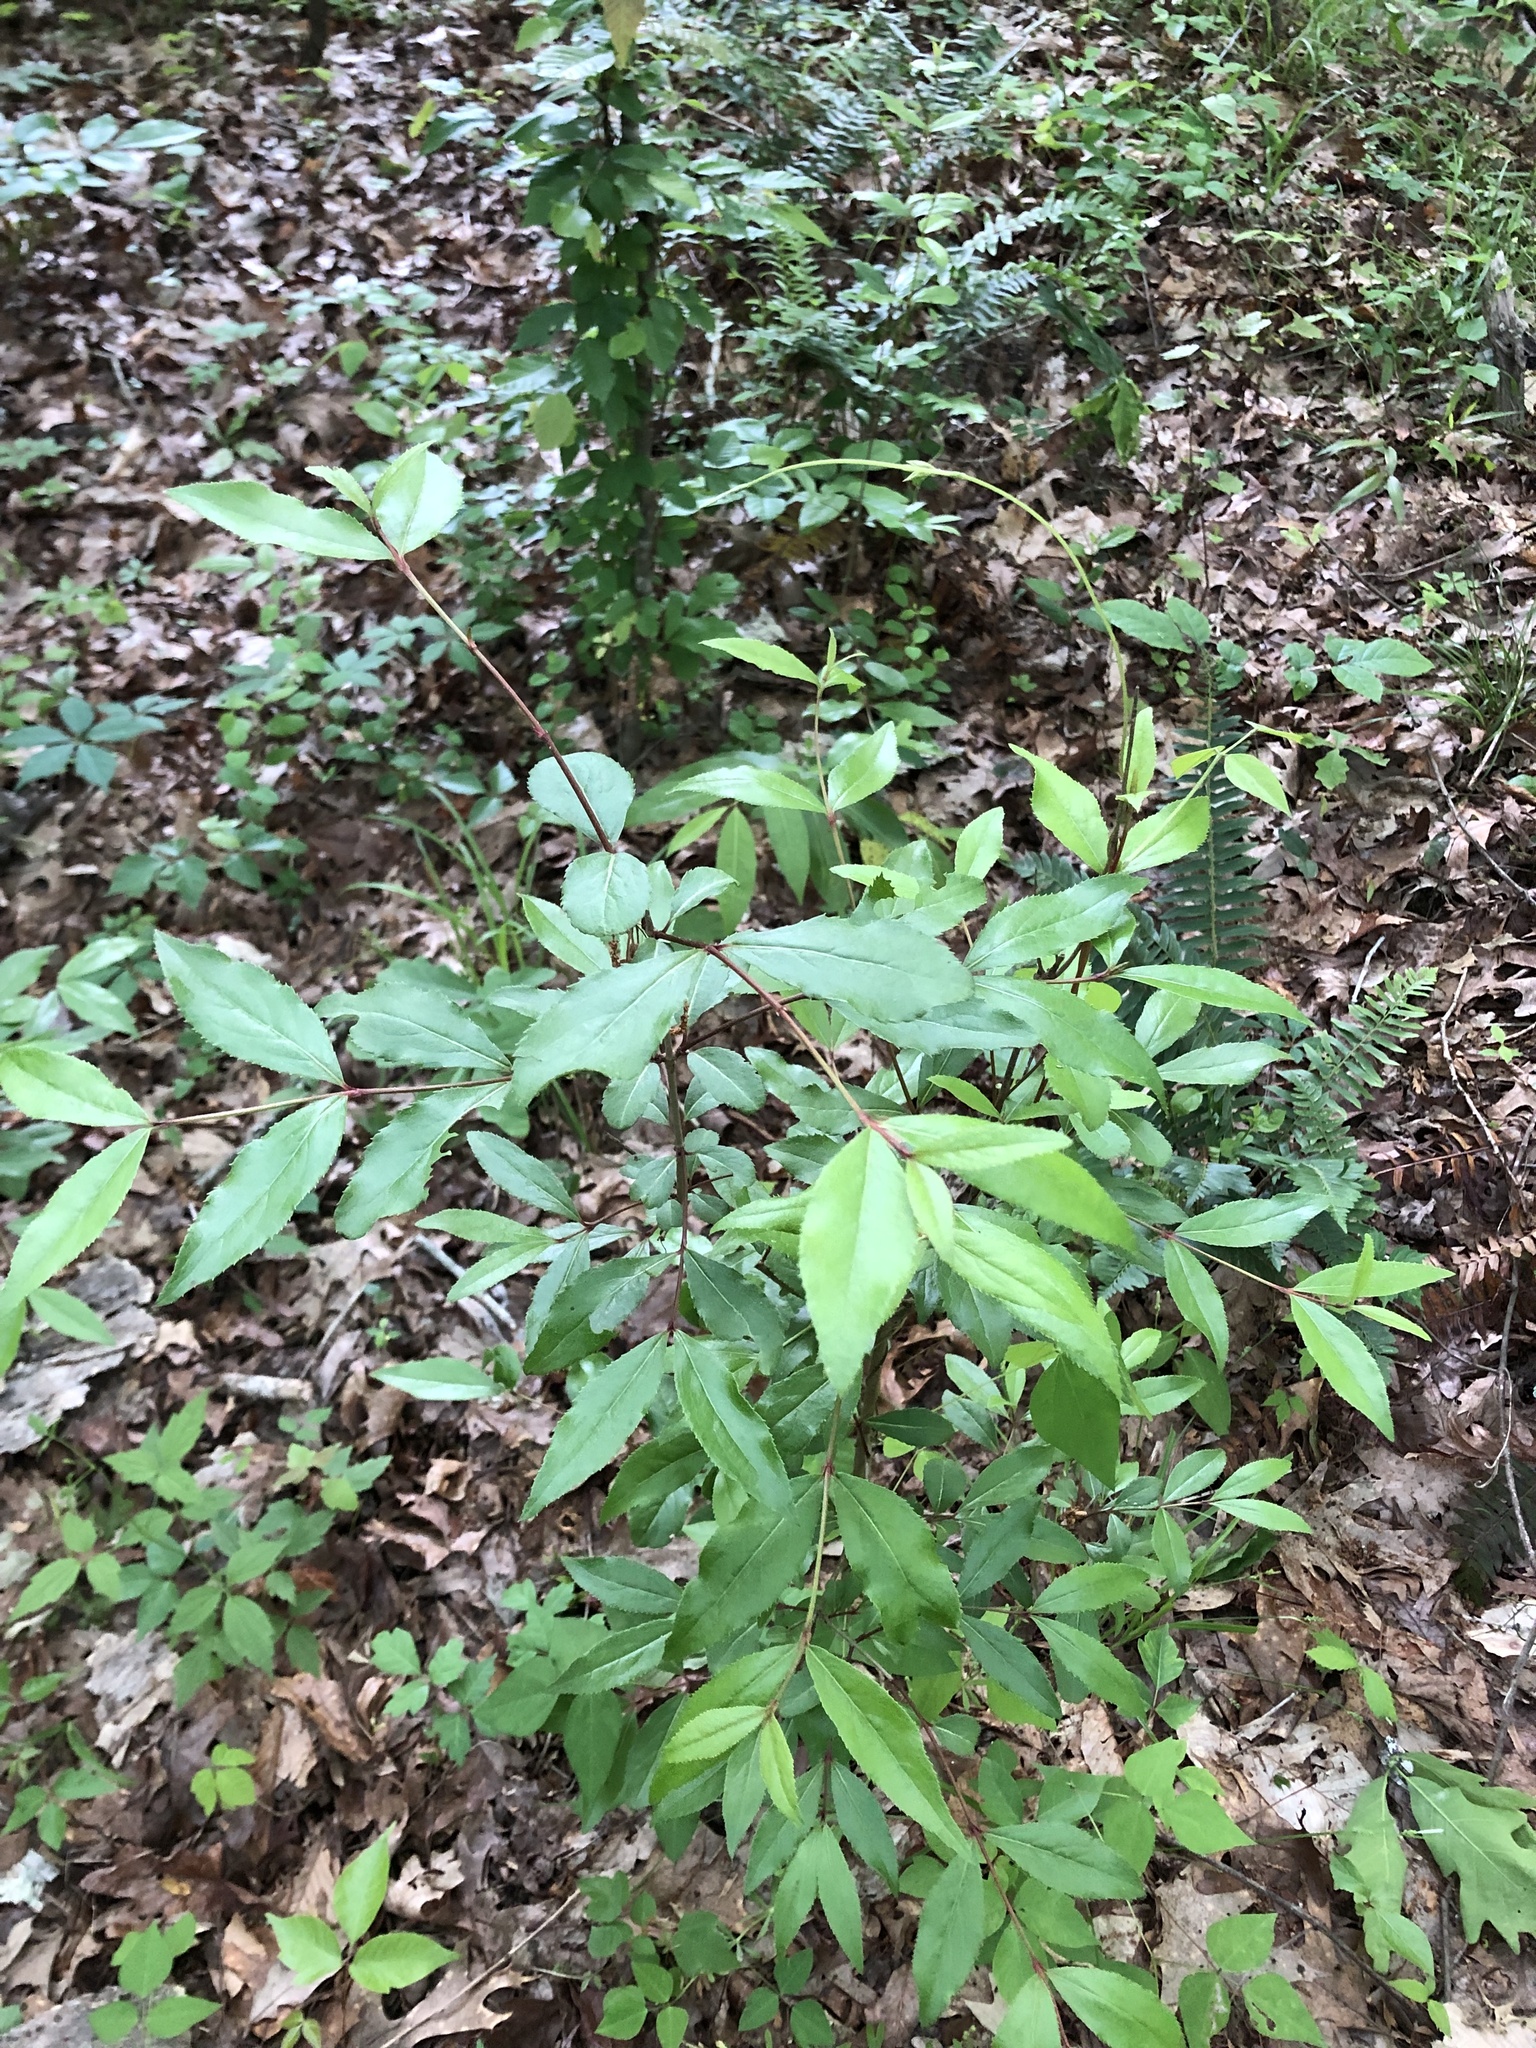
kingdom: Plantae
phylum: Tracheophyta
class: Magnoliopsida
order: Dipsacales
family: Viburnaceae
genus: Viburnum
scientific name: Viburnum prunifolium
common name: Black haw
